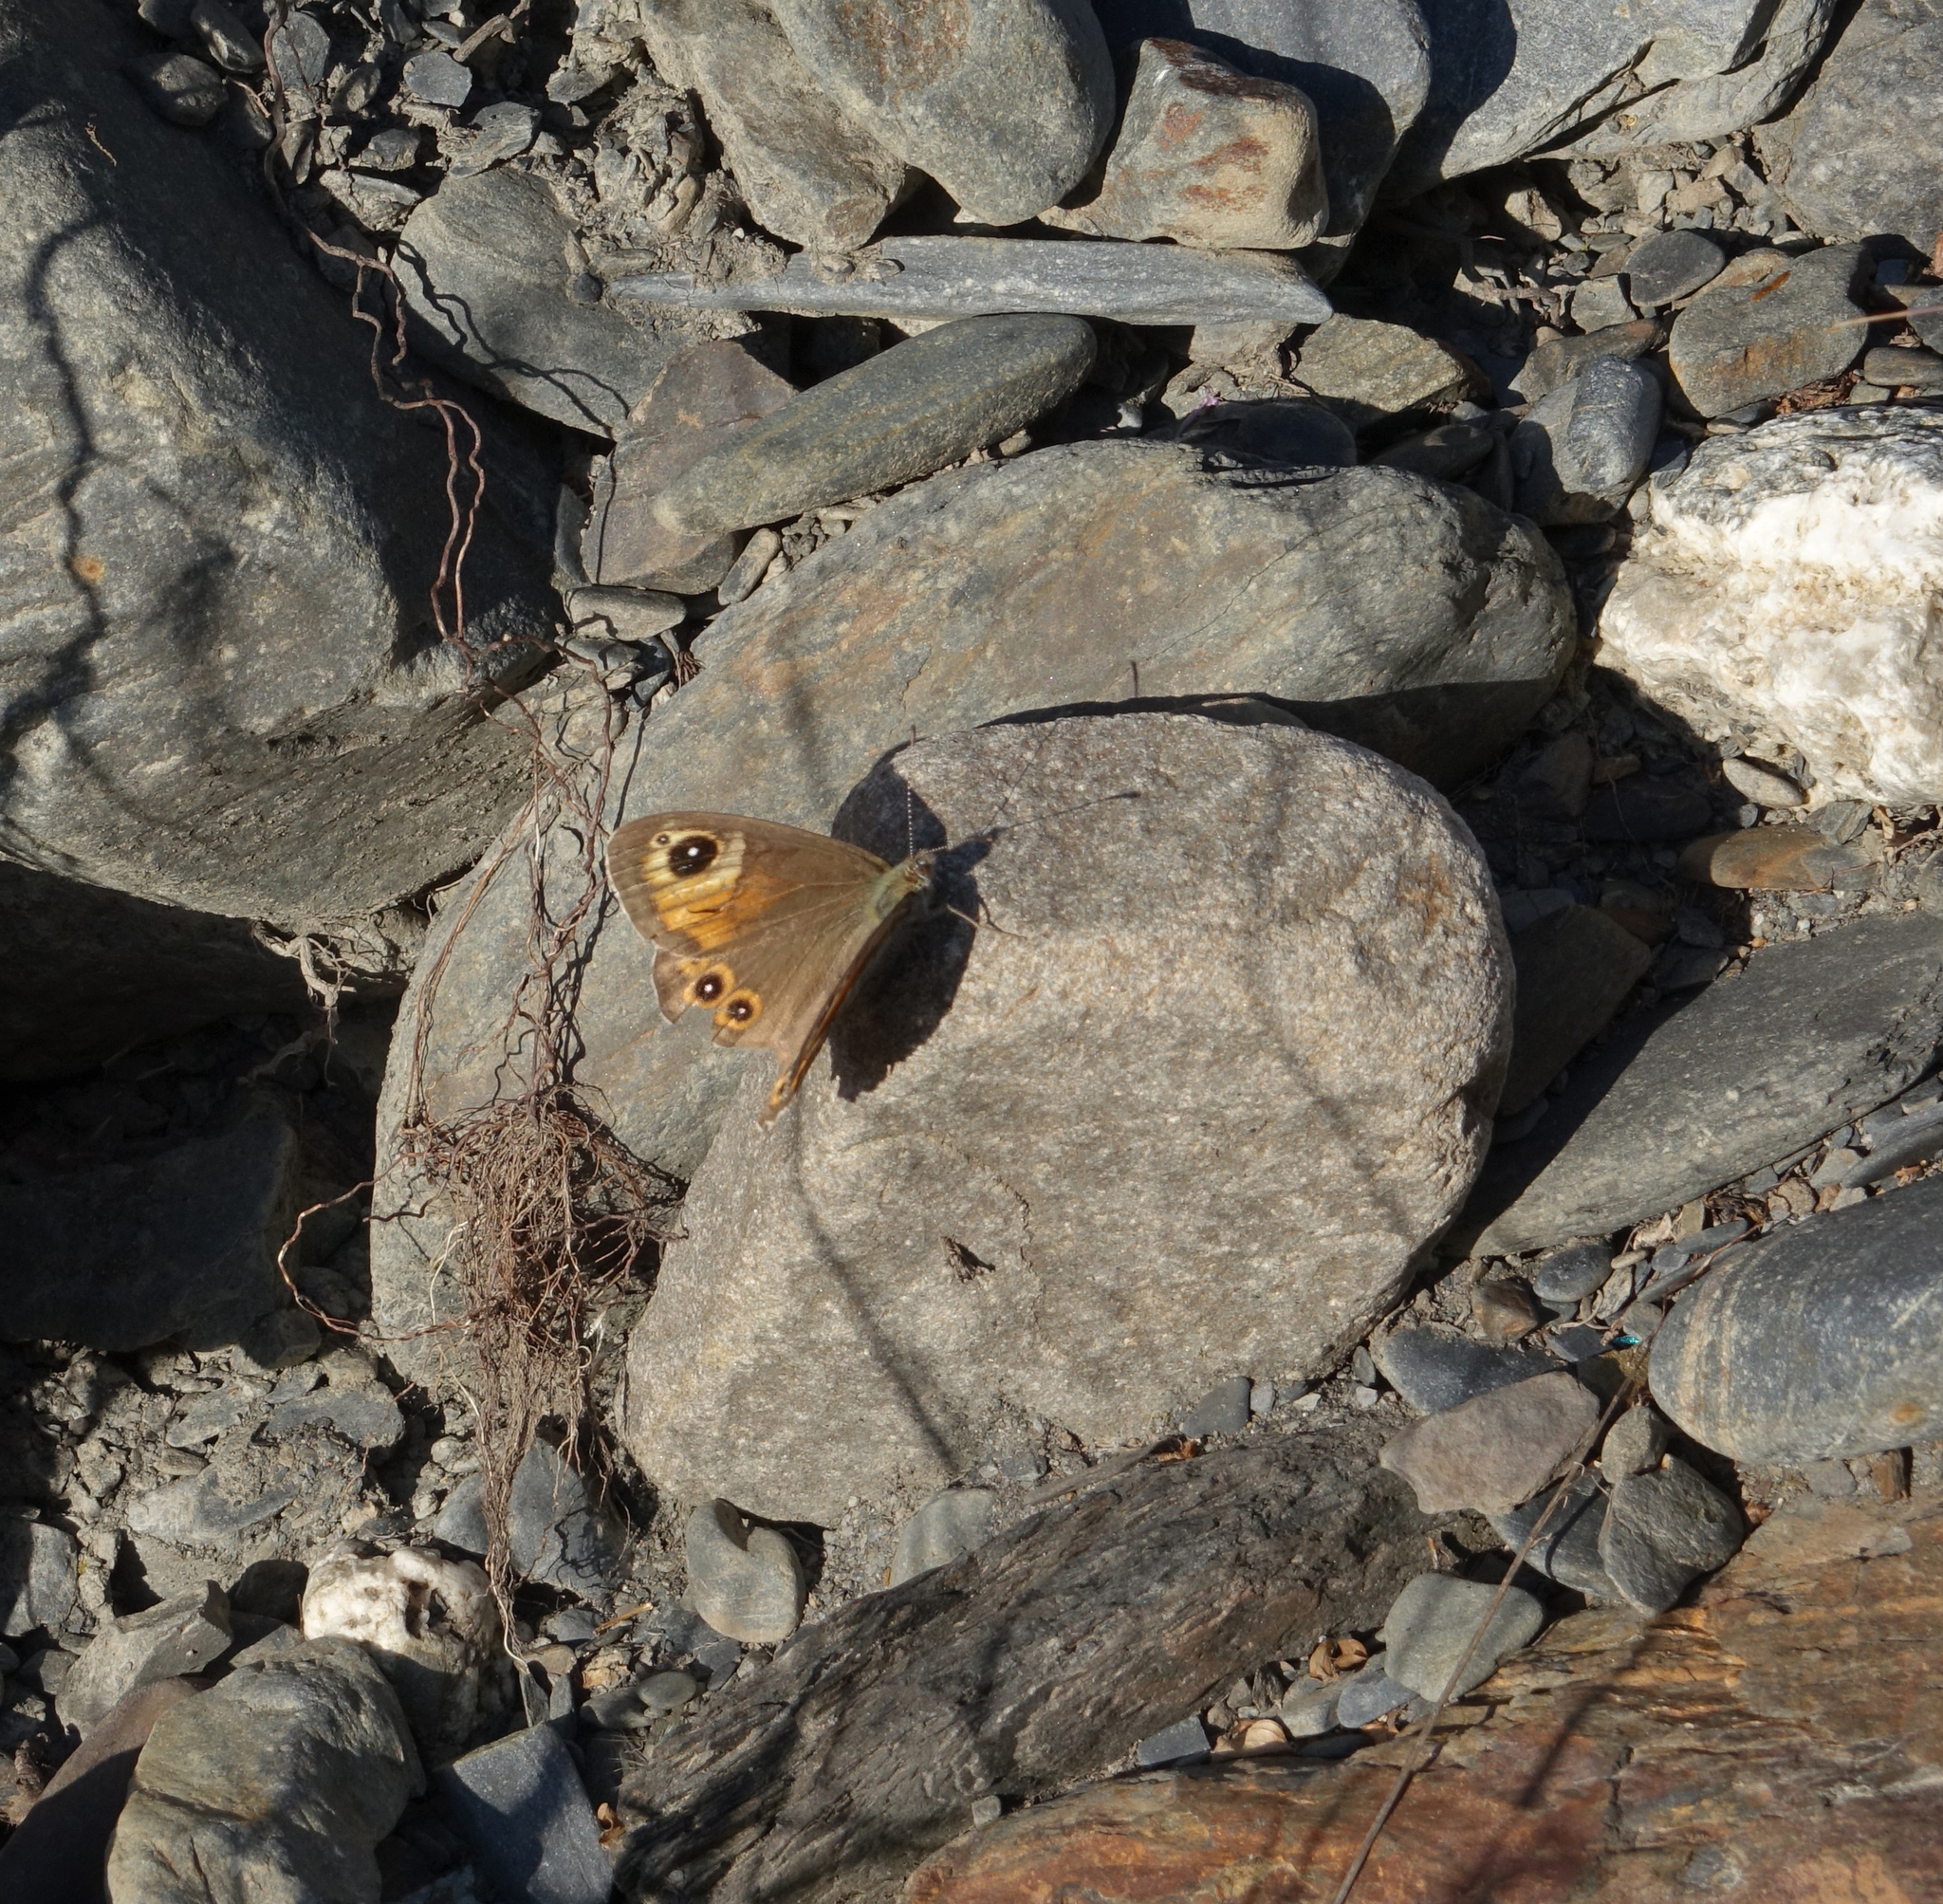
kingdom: Animalia
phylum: Arthropoda
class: Insecta
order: Lepidoptera
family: Nymphalidae
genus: Pararge
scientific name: Pararge Lasiommata maera
